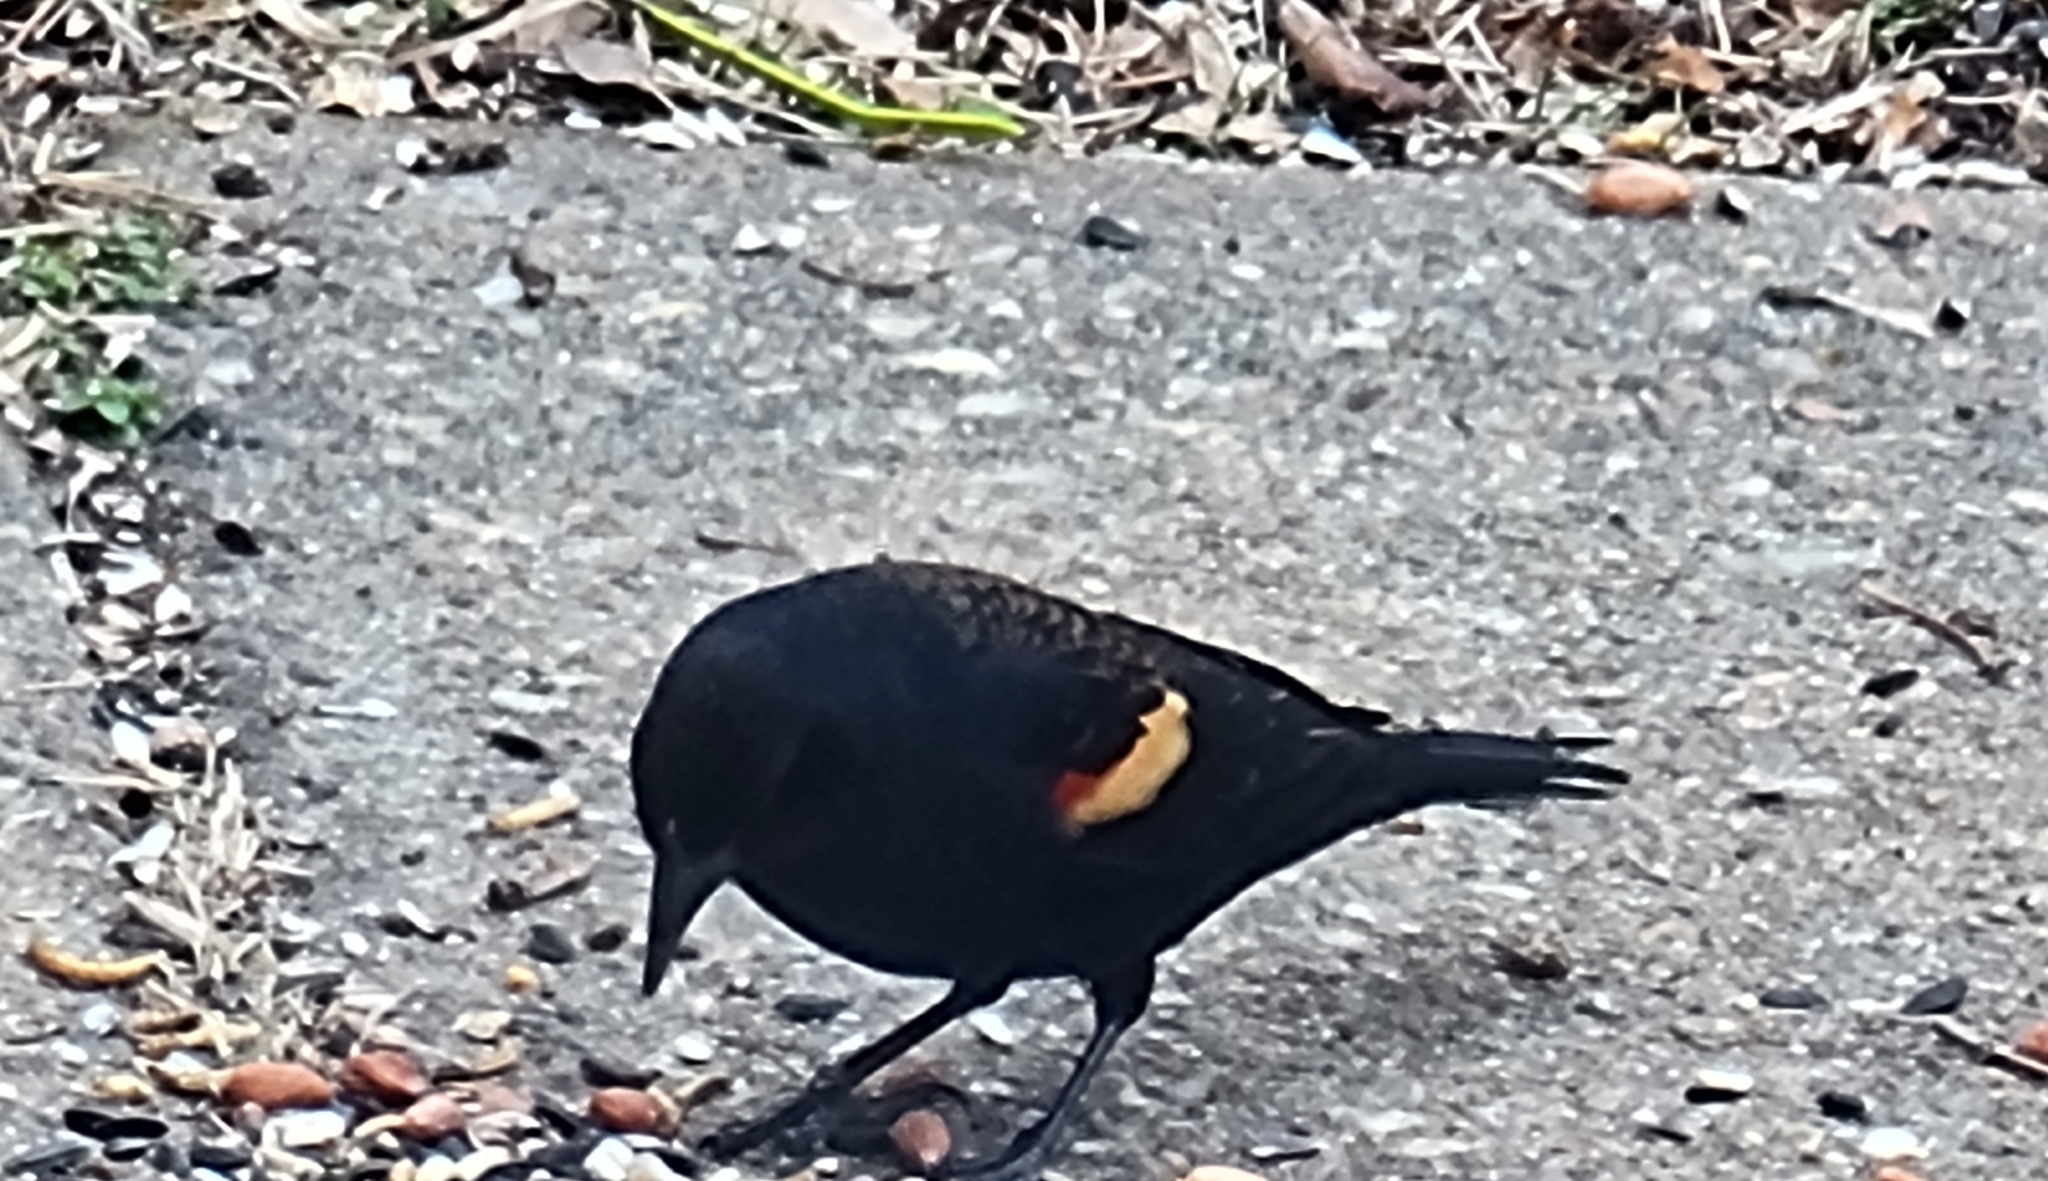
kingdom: Animalia
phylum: Chordata
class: Aves
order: Passeriformes
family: Icteridae
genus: Agelaius
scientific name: Agelaius phoeniceus
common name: Red-winged blackbird
